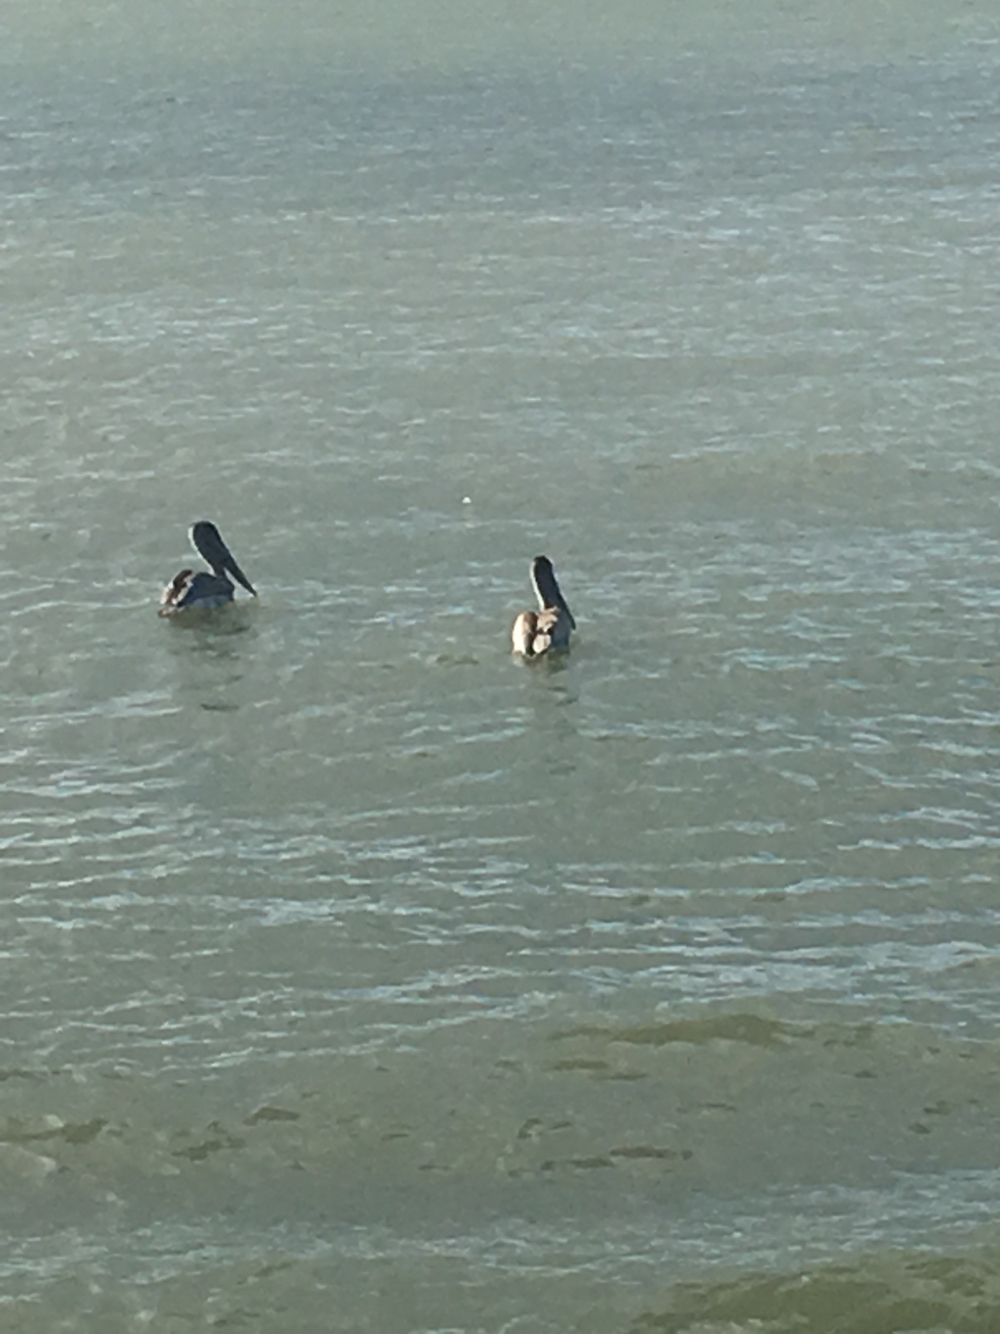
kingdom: Animalia
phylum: Chordata
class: Aves
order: Pelecaniformes
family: Pelecanidae
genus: Pelecanus
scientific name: Pelecanus occidentalis
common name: Brown pelican
